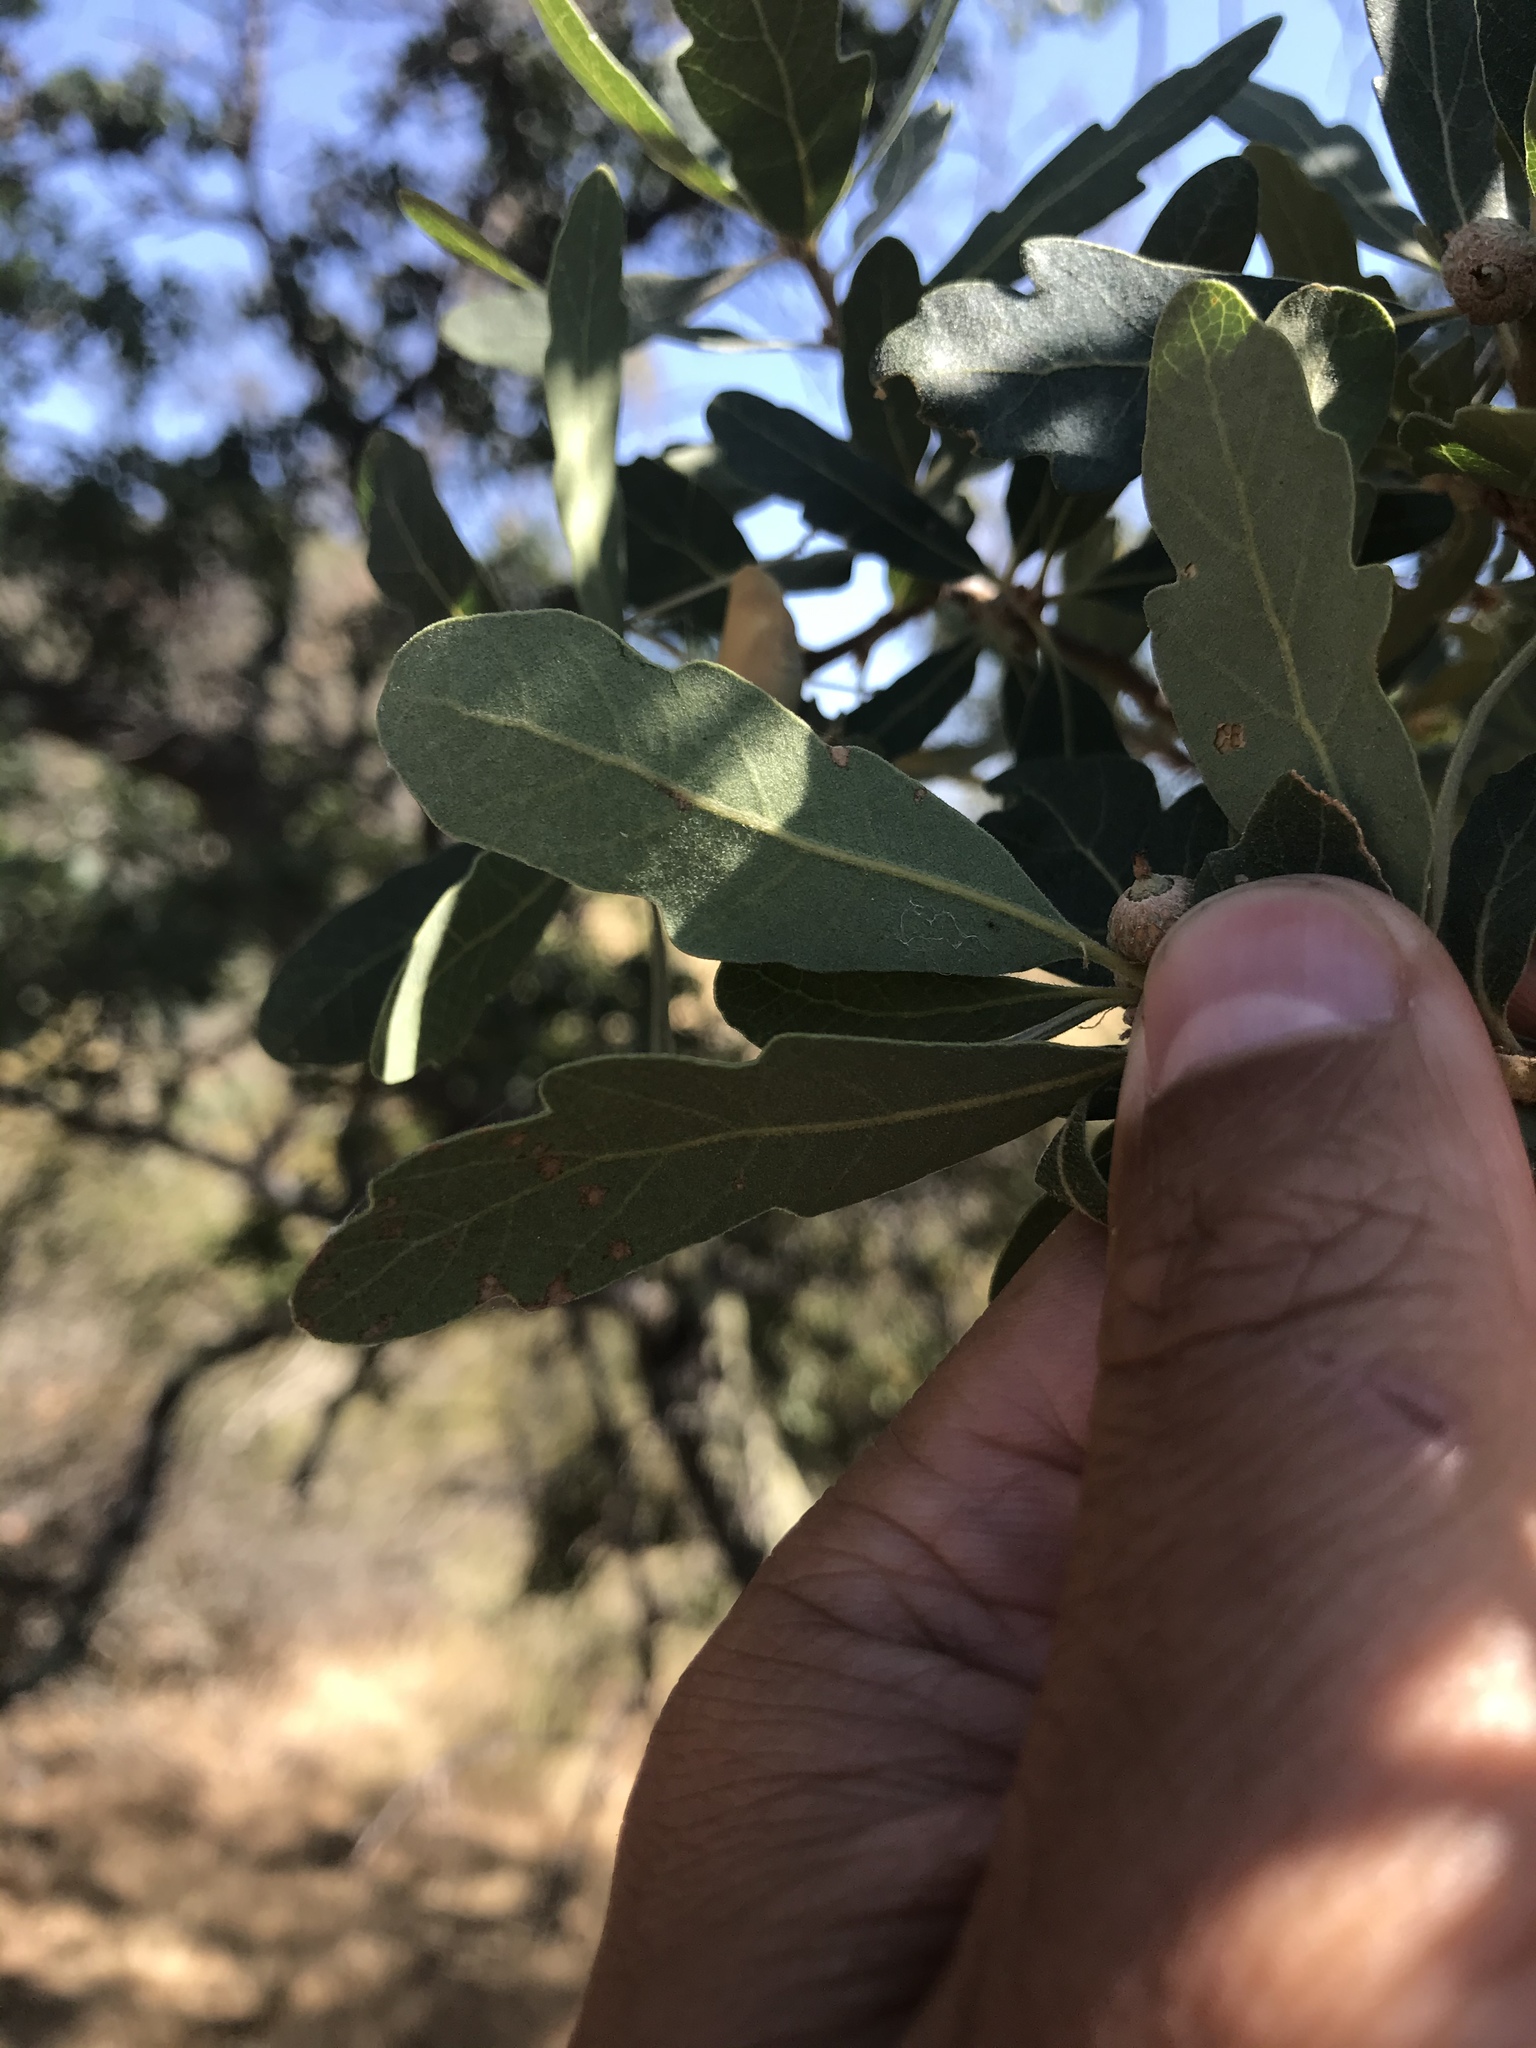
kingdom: Plantae
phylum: Tracheophyta
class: Magnoliopsida
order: Fagales
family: Fagaceae
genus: Quercus
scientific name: Quercus douglasii
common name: Blue oak
